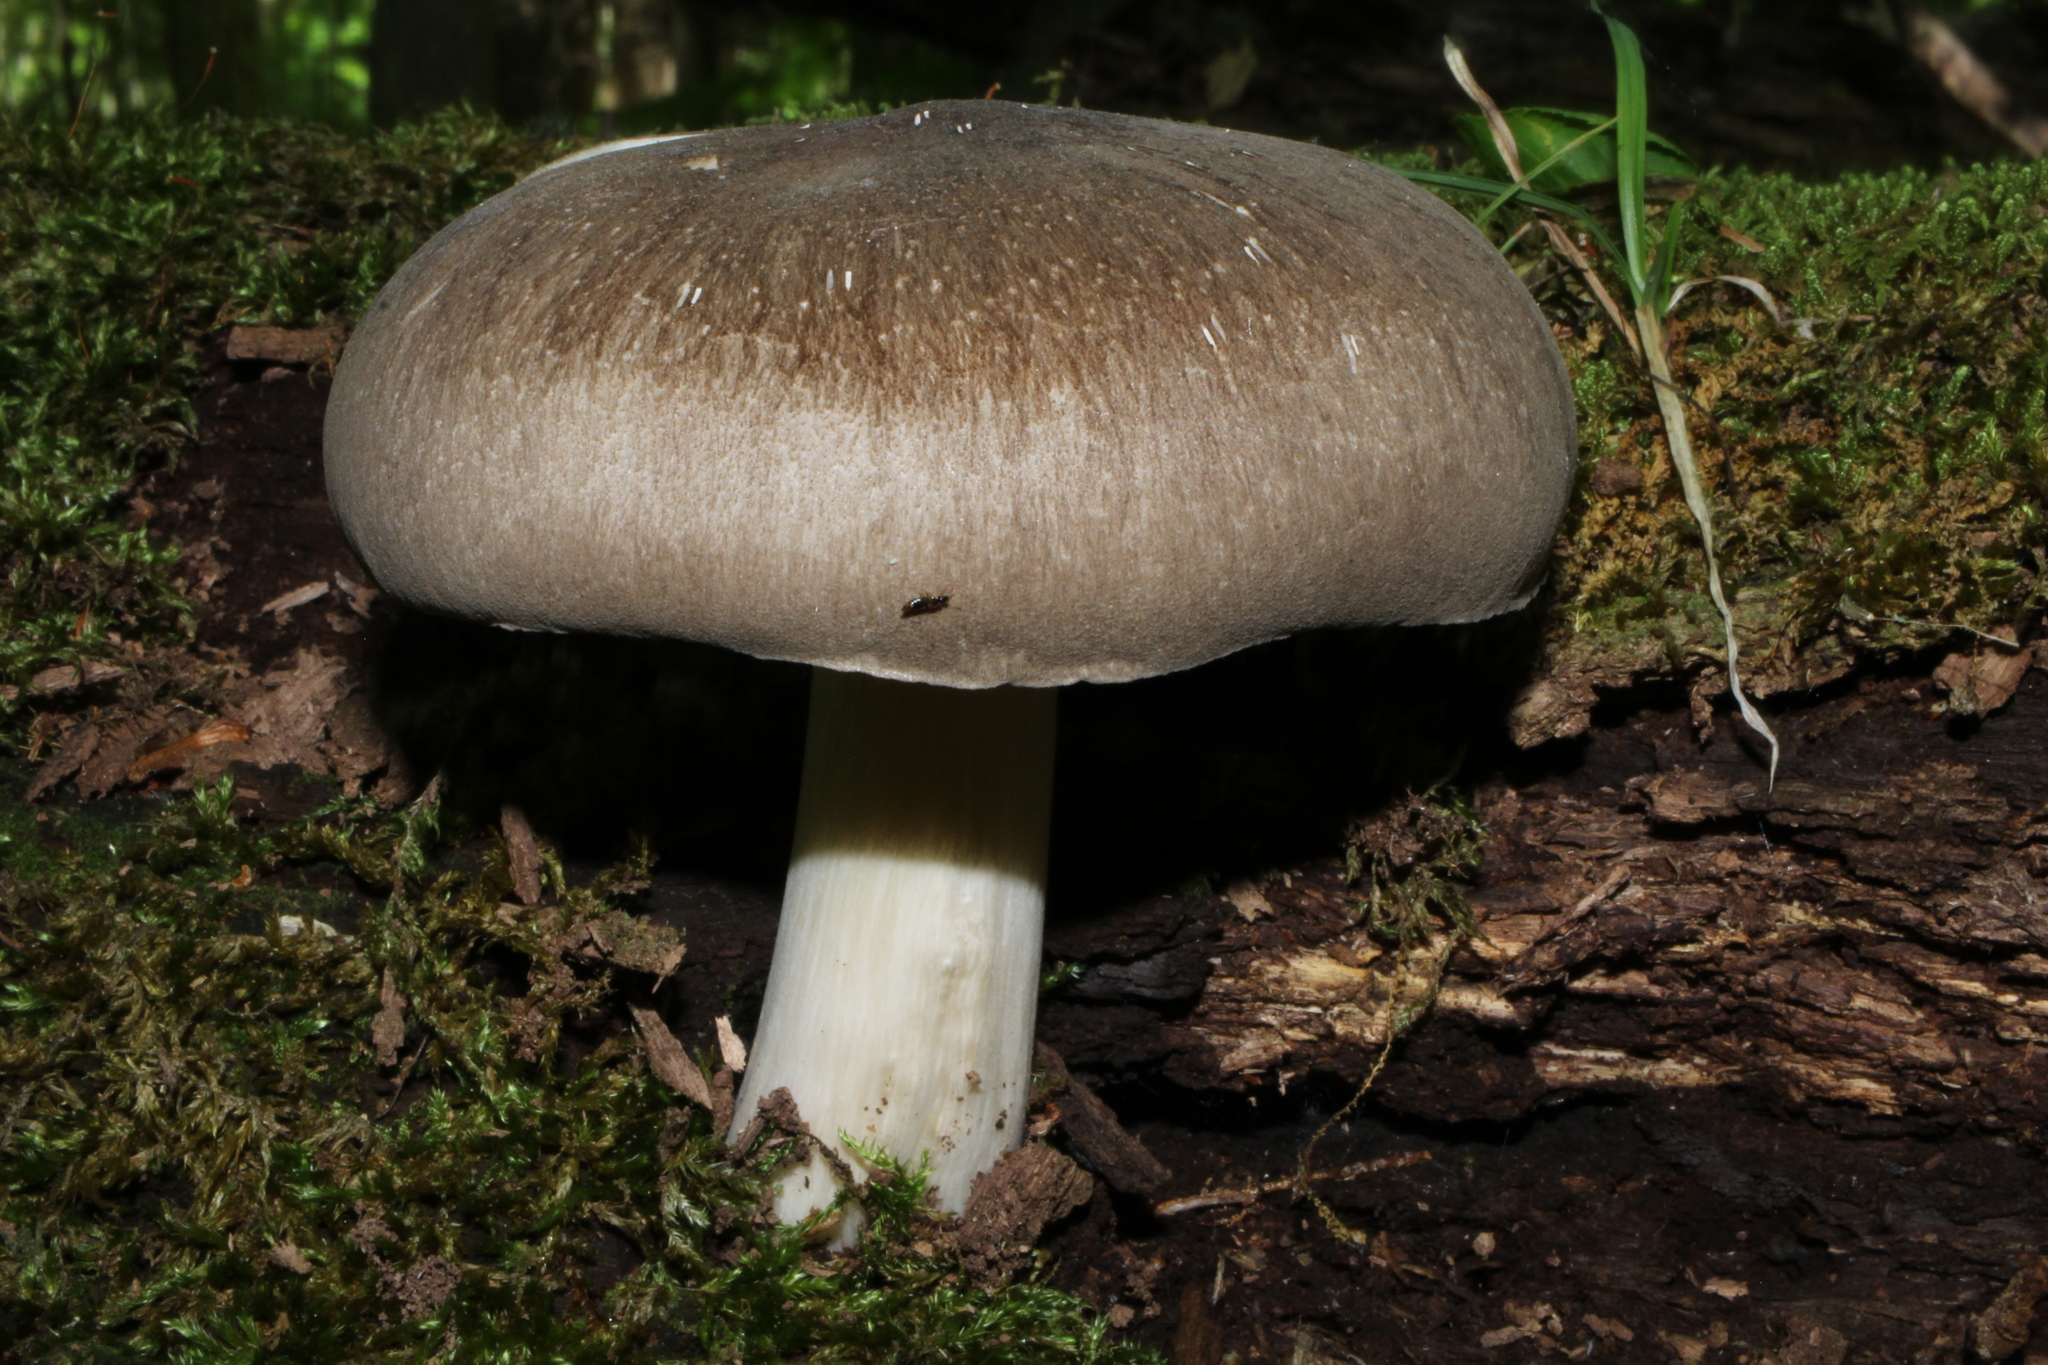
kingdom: Fungi
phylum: Basidiomycota
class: Agaricomycetes
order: Agaricales
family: Tricholomataceae
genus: Megacollybia
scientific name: Megacollybia rodmanii
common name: Eastern american platterful mushroom
